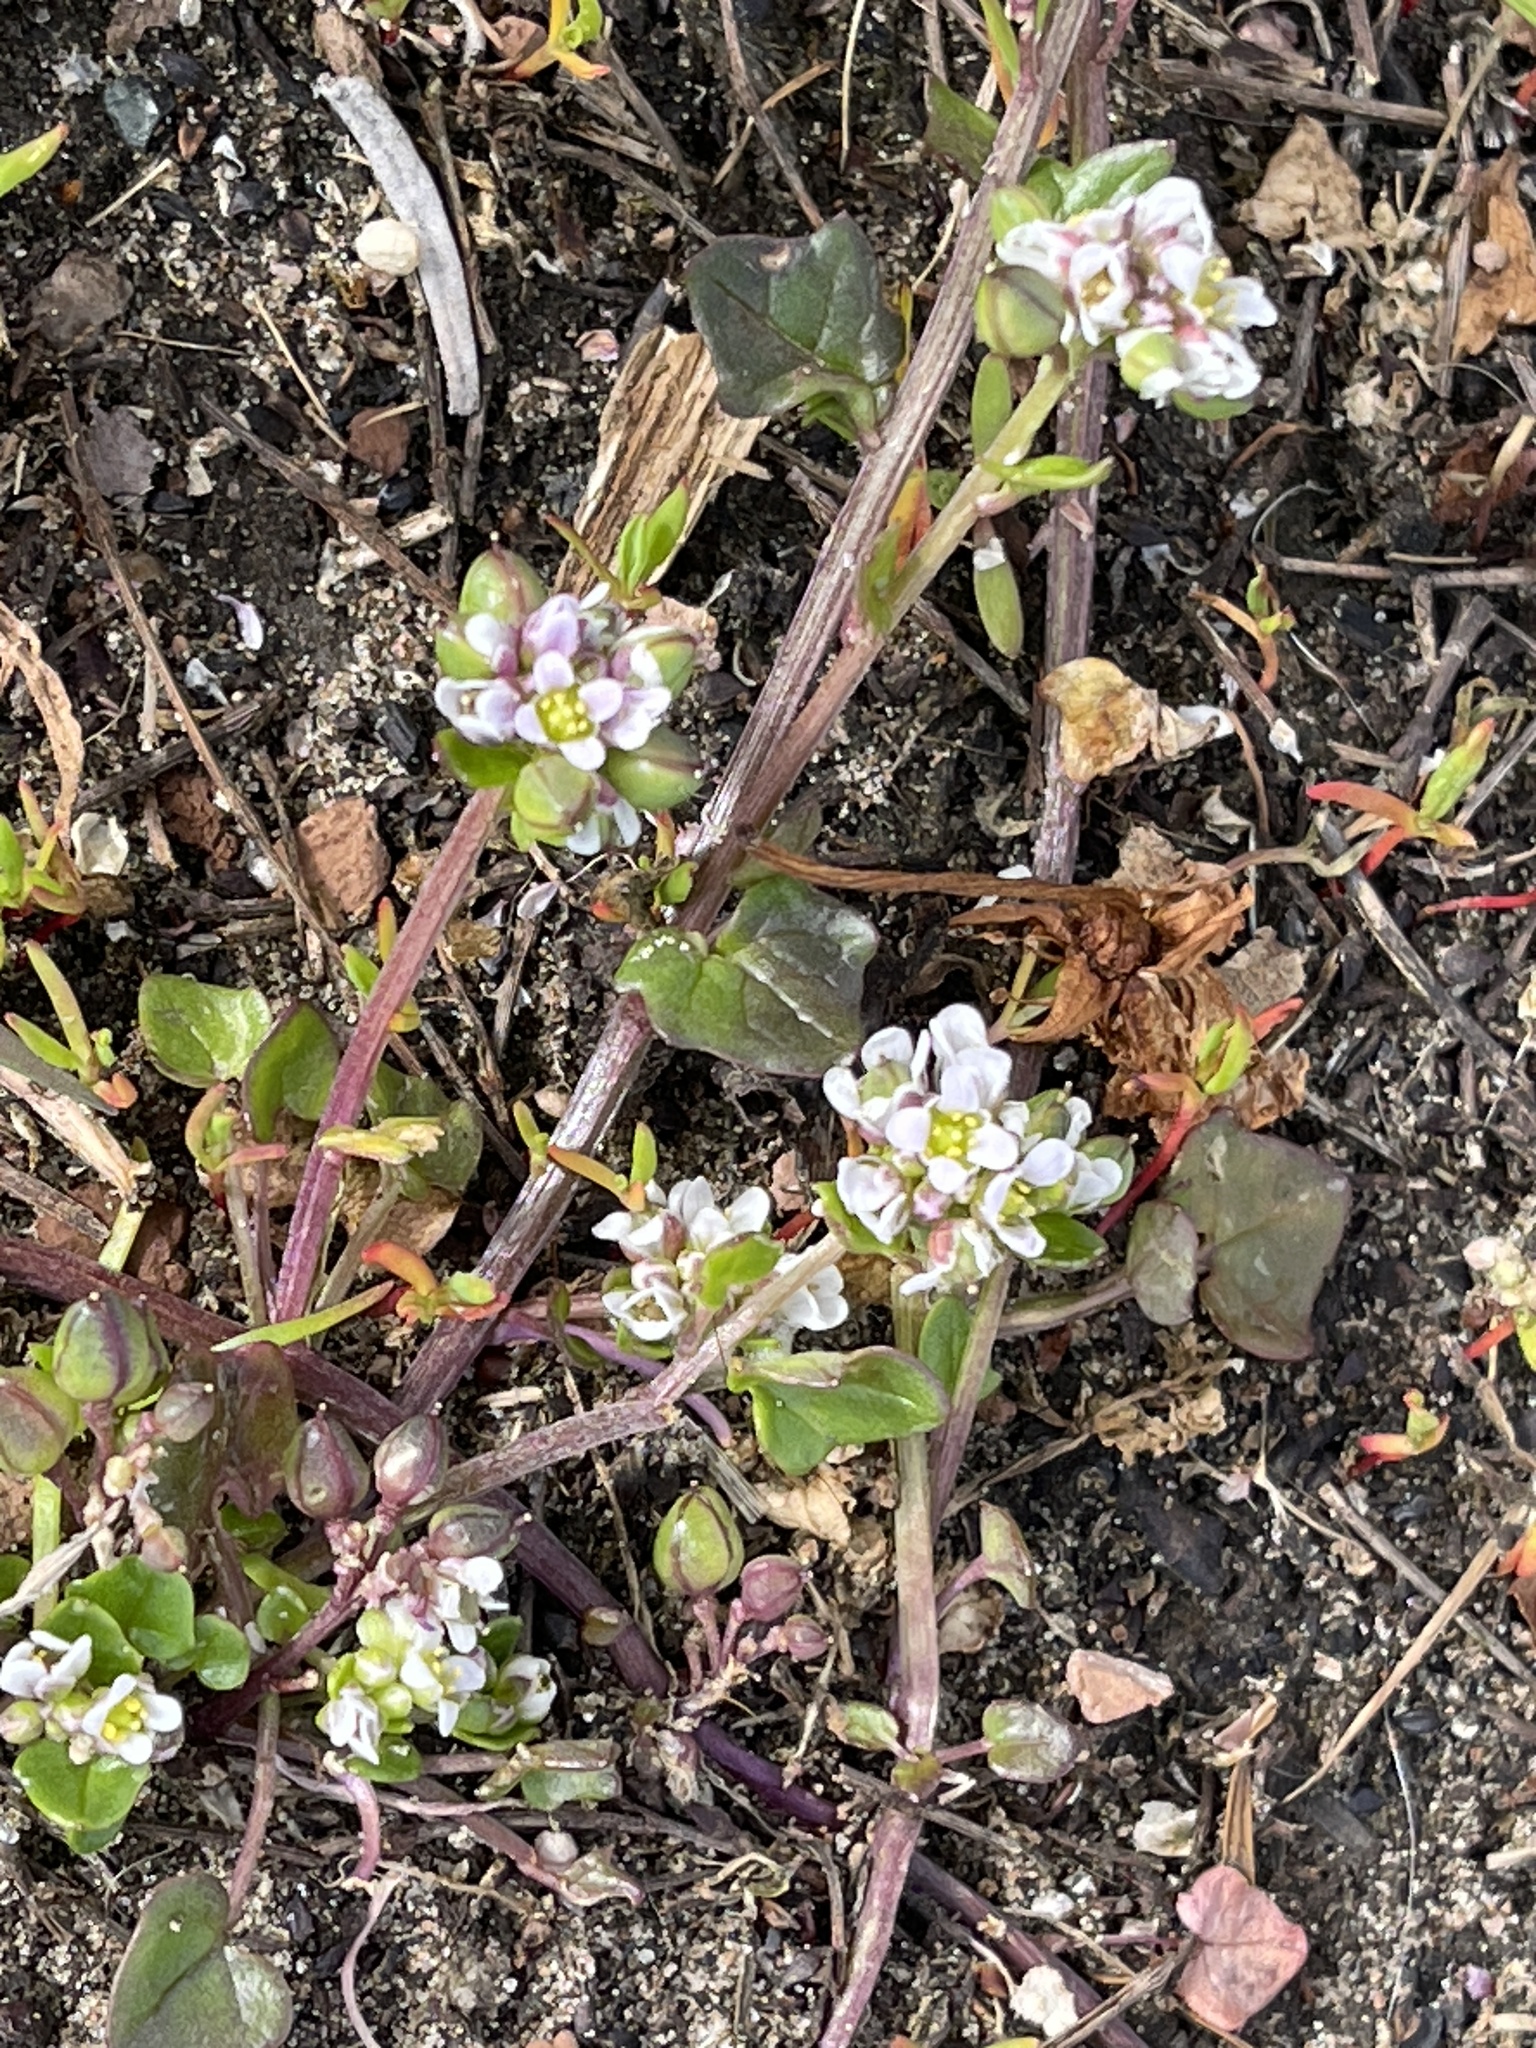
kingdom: Plantae
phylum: Tracheophyta
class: Magnoliopsida
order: Brassicales
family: Brassicaceae
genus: Cochlearia
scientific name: Cochlearia danica
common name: Early scurvygrass
